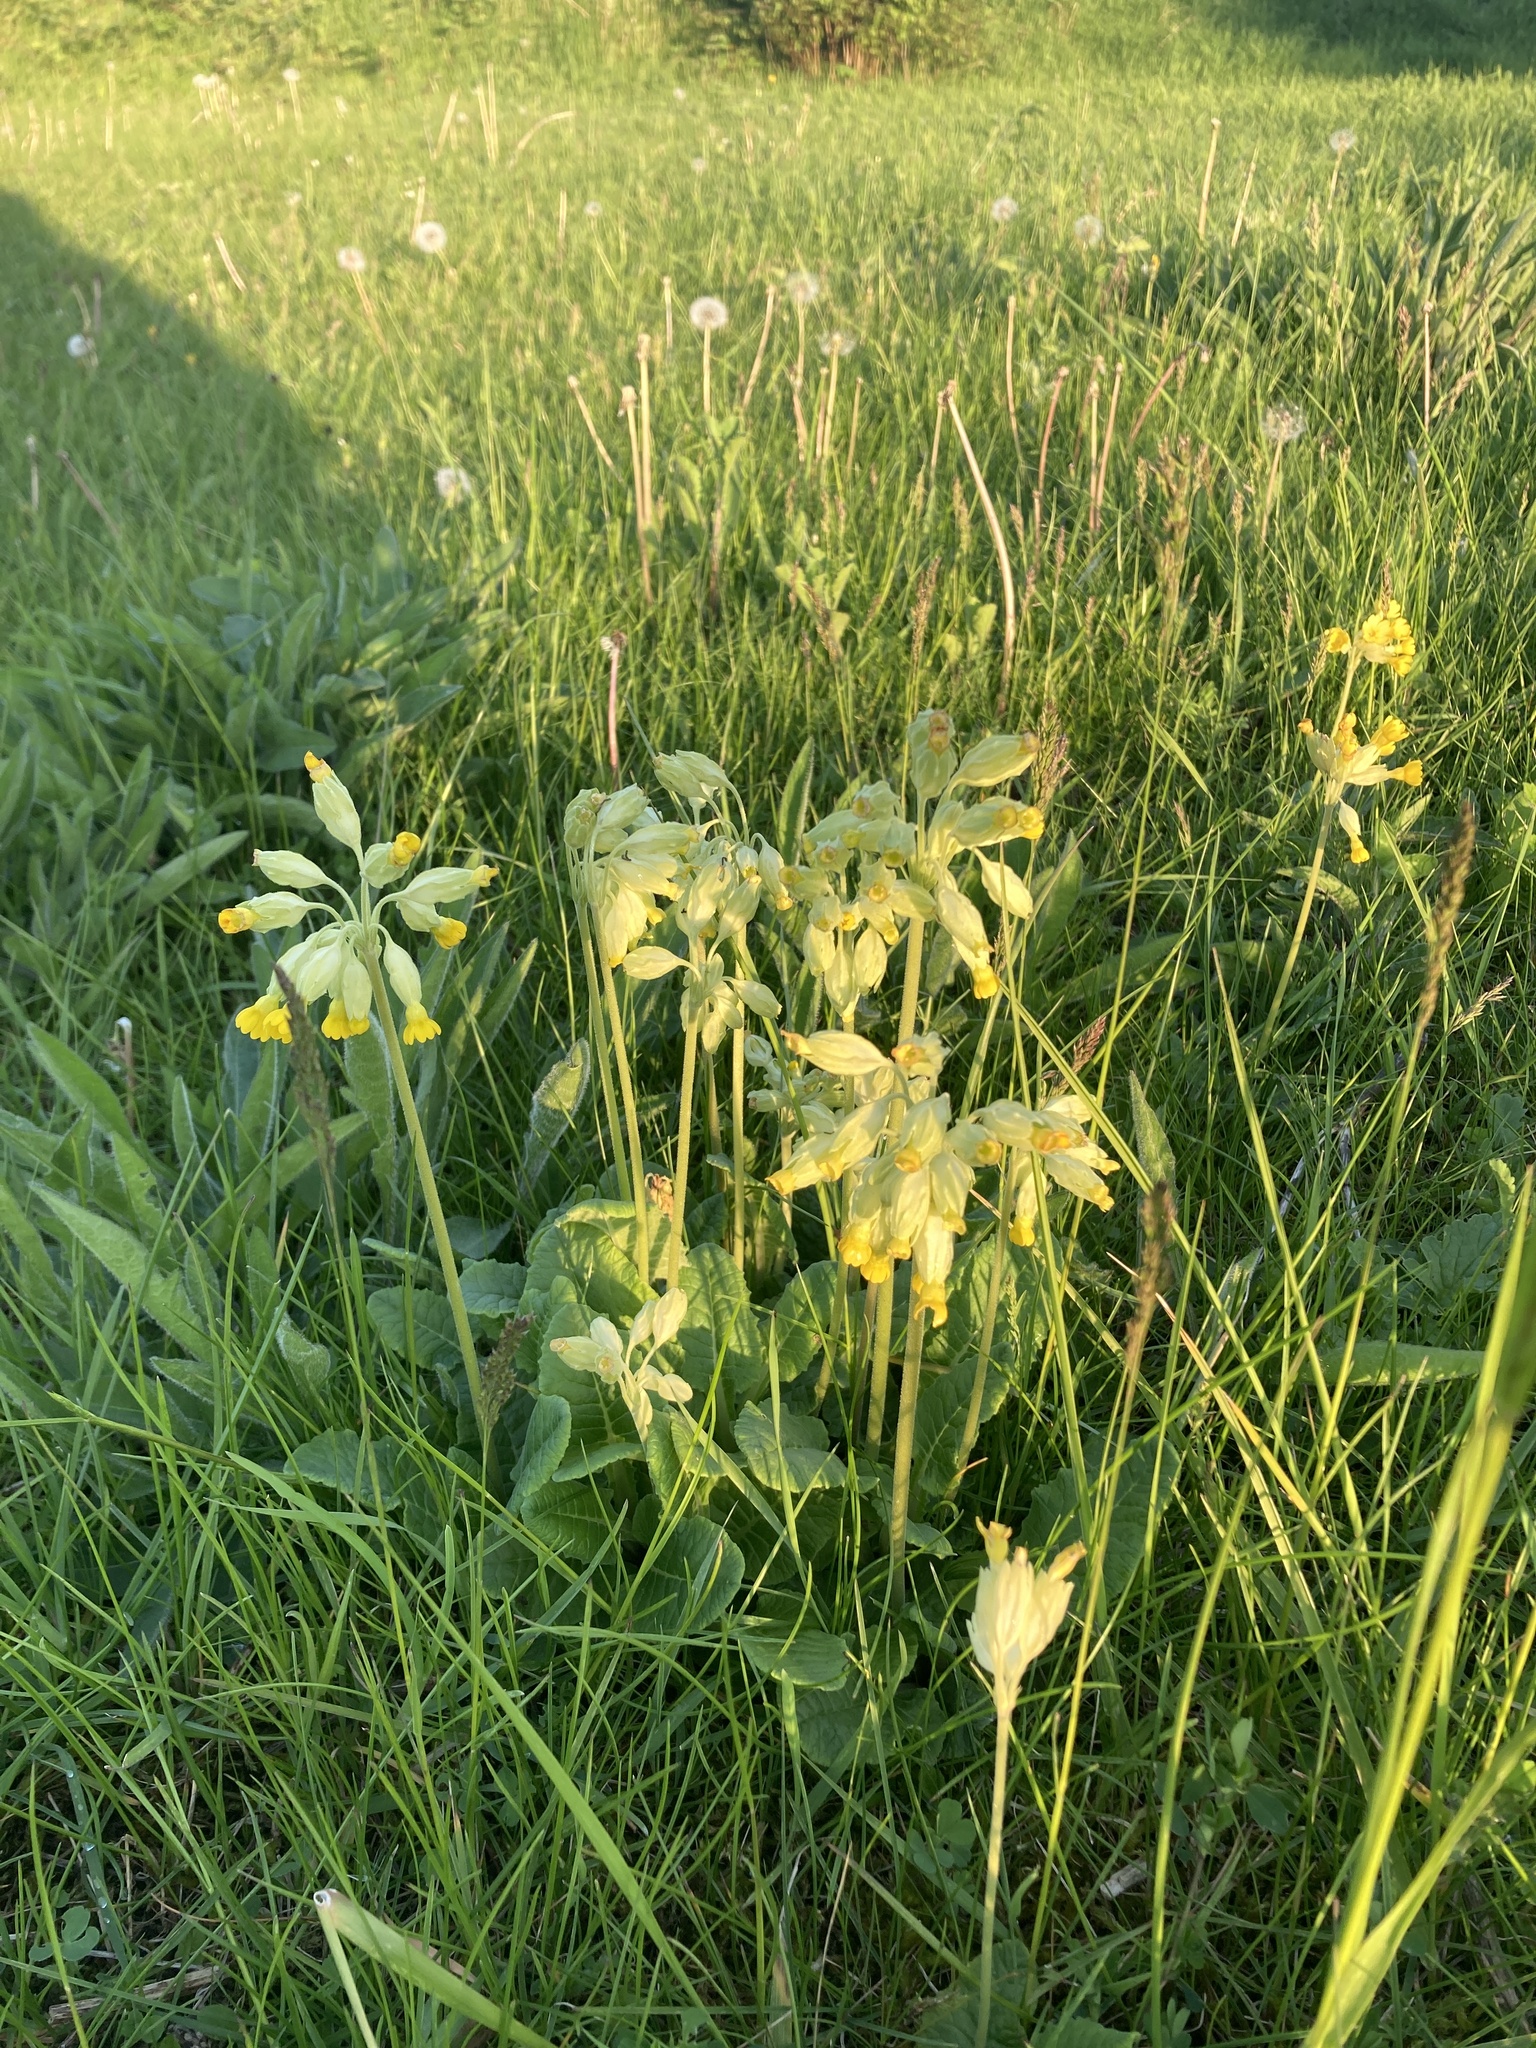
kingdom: Plantae
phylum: Tracheophyta
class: Magnoliopsida
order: Ericales
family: Primulaceae
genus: Primula
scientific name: Primula veris
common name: Cowslip
